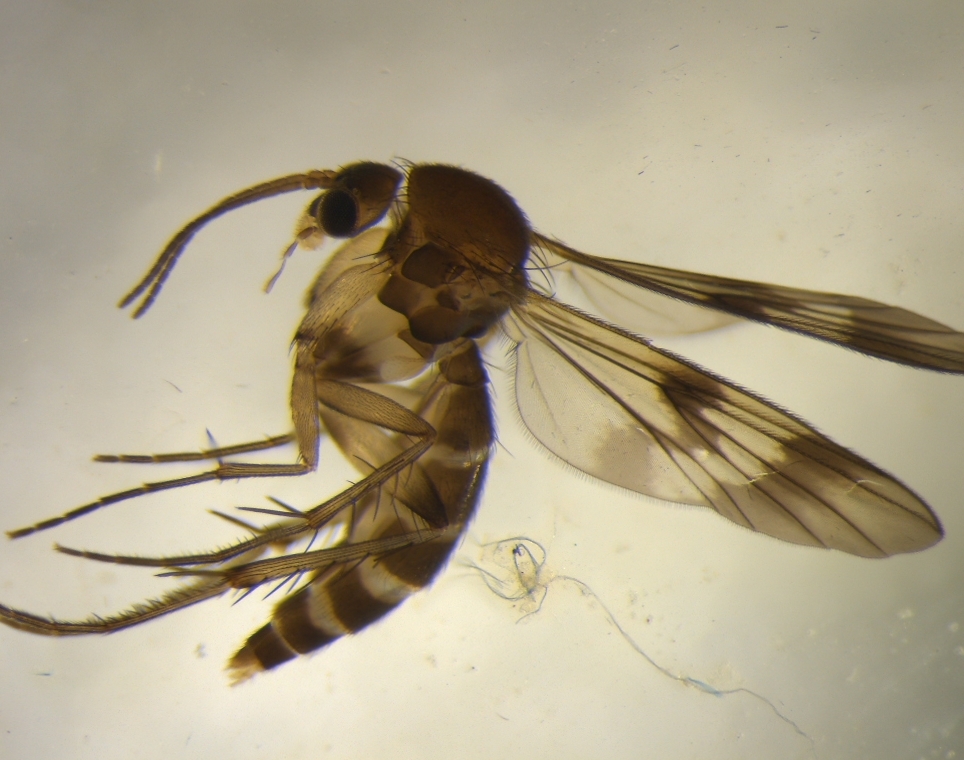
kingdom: Animalia
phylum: Arthropoda
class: Insecta
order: Diptera
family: Mycetophilidae
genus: Mycetophila
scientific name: Mycetophila elongata
